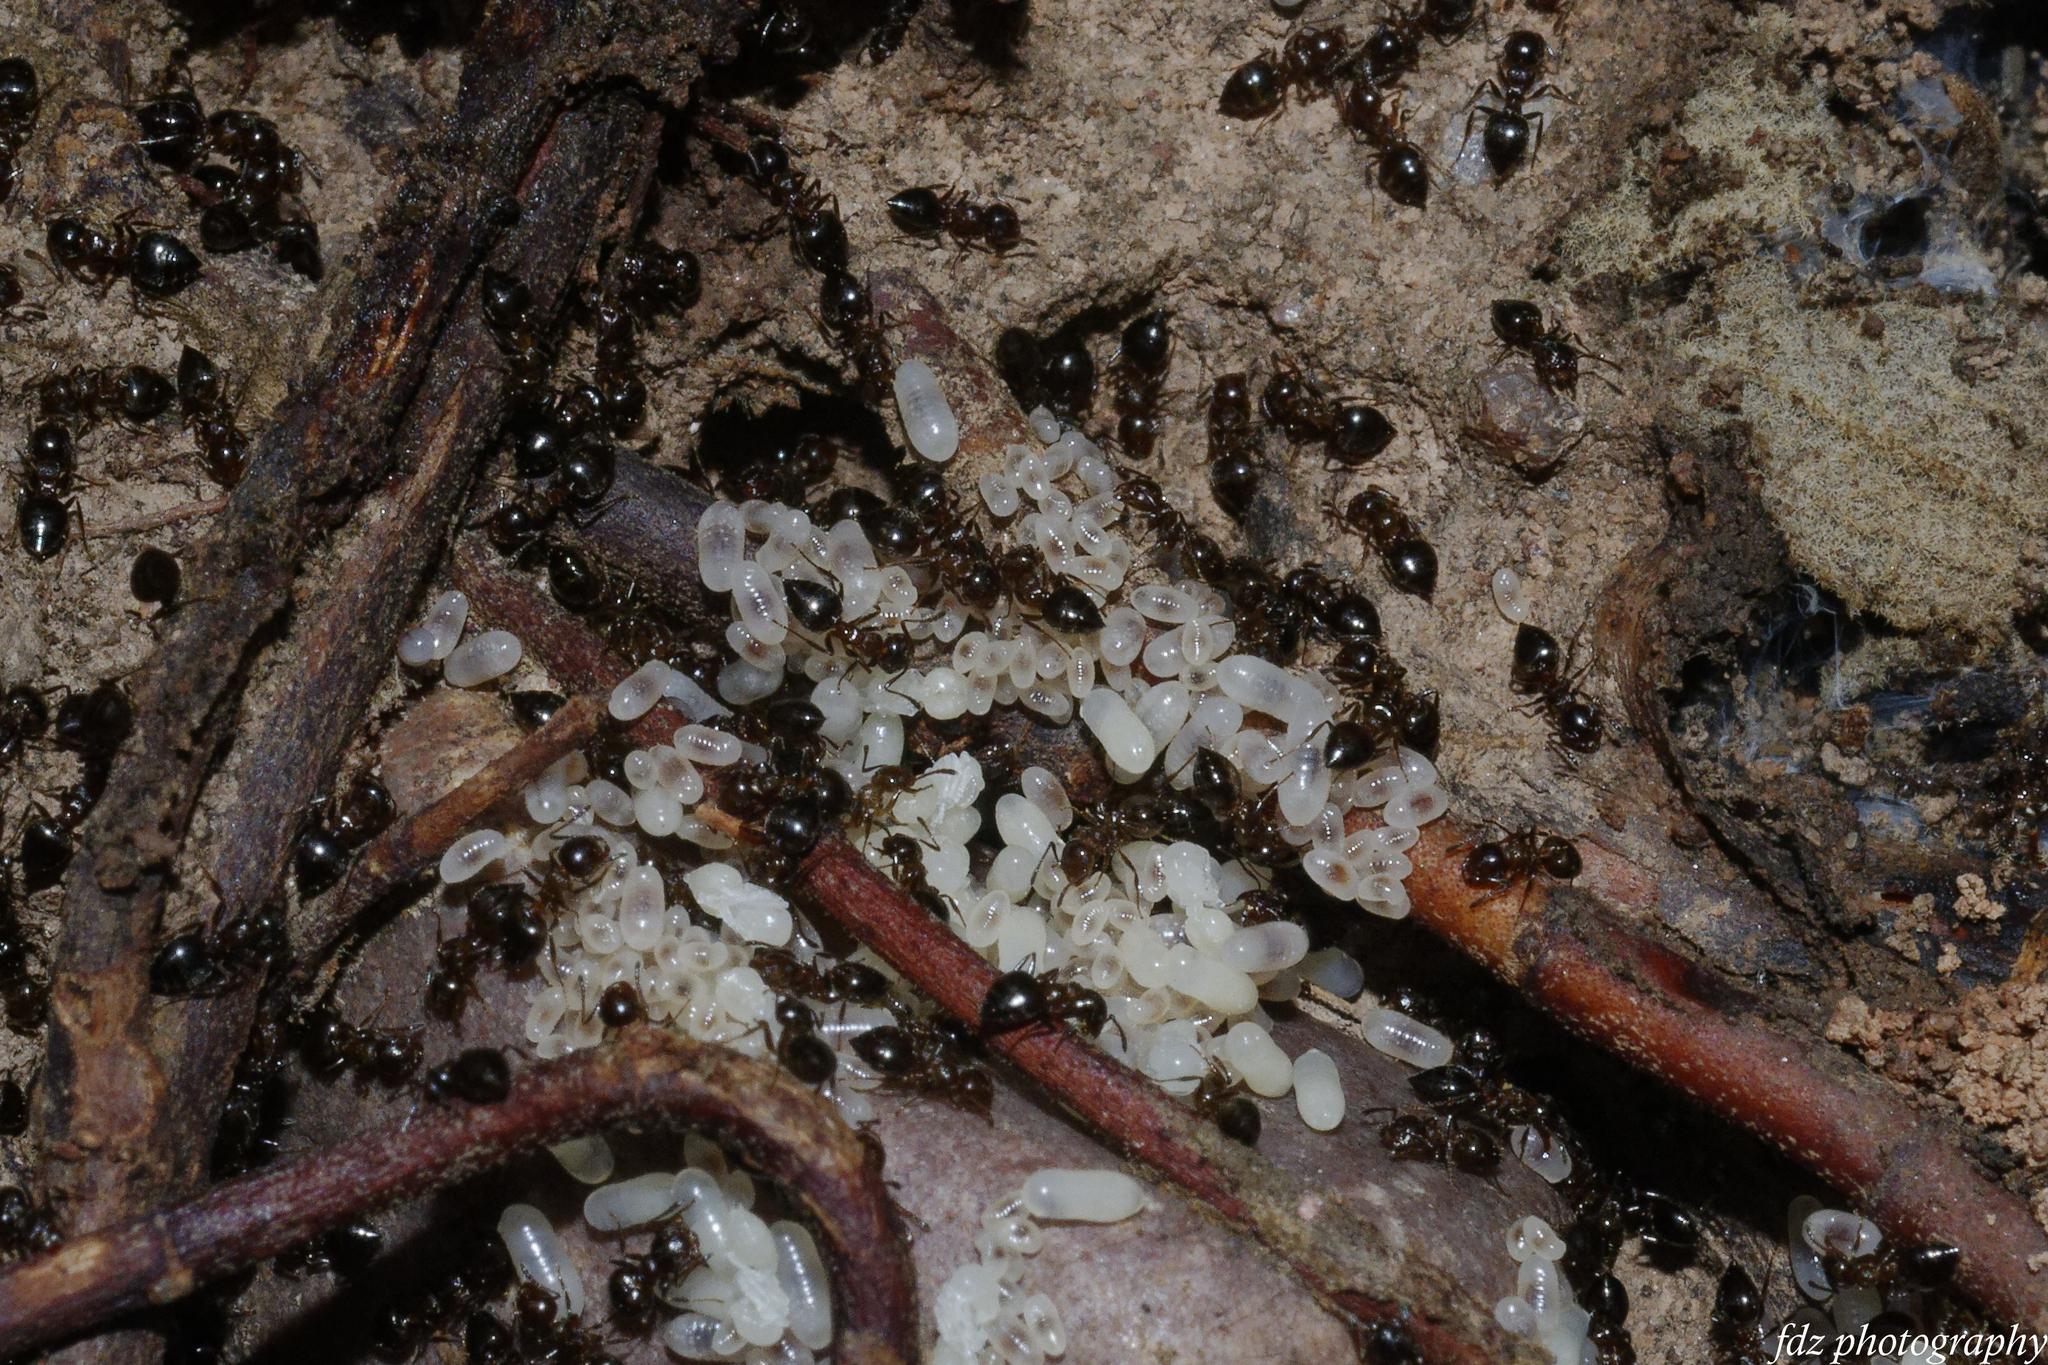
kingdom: Animalia
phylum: Arthropoda
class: Insecta
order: Hymenoptera
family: Formicidae
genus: Crematogaster
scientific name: Crematogaster auberti
